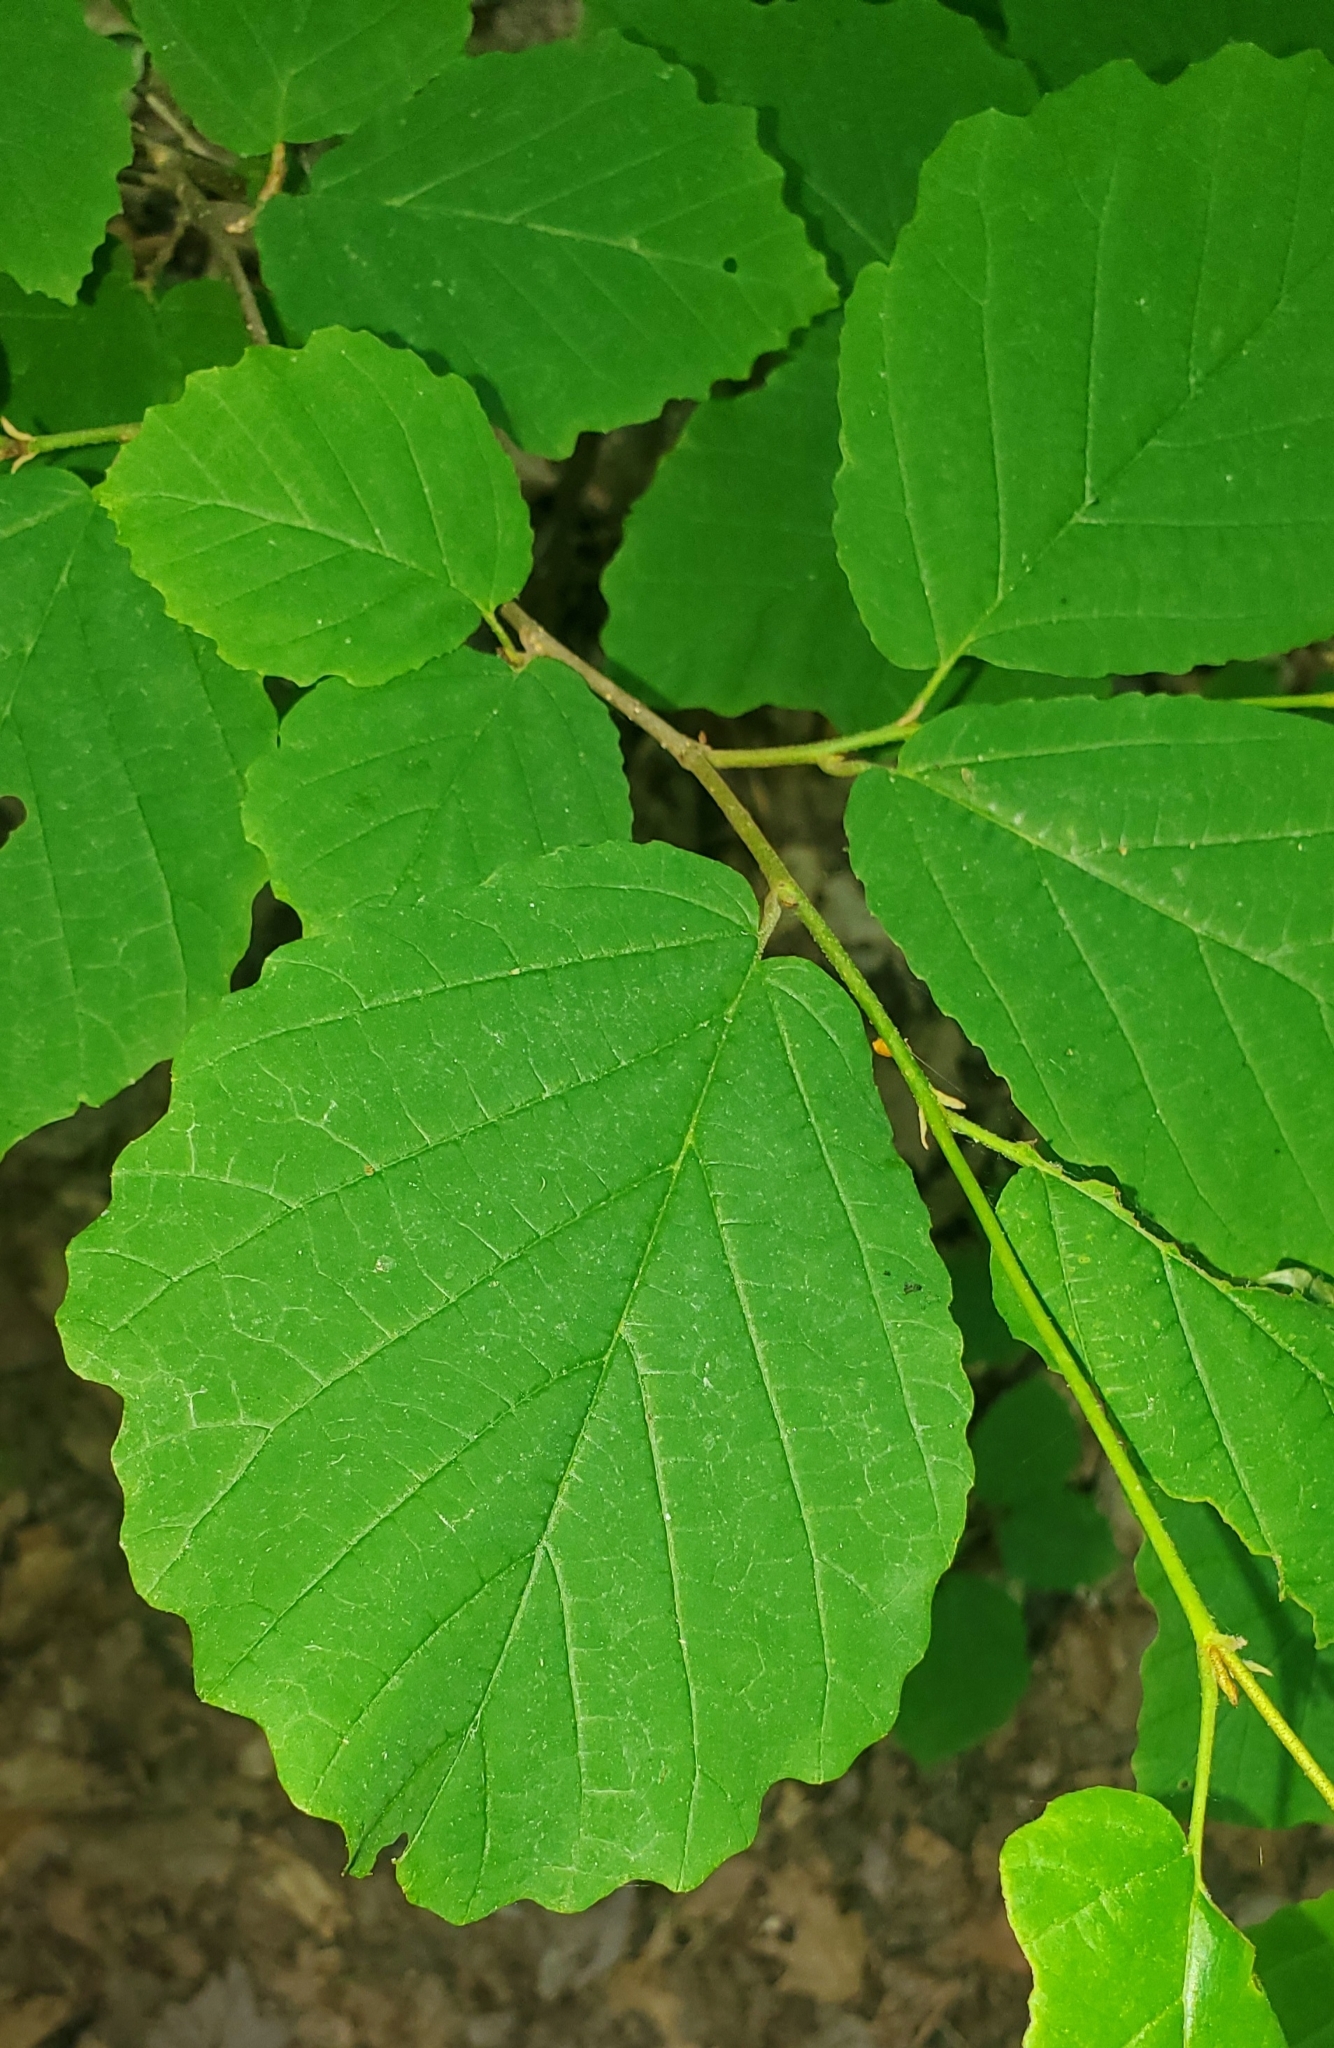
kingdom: Plantae
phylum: Tracheophyta
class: Magnoliopsida
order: Saxifragales
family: Hamamelidaceae
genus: Hamamelis
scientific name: Hamamelis virginiana
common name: Witch-hazel
